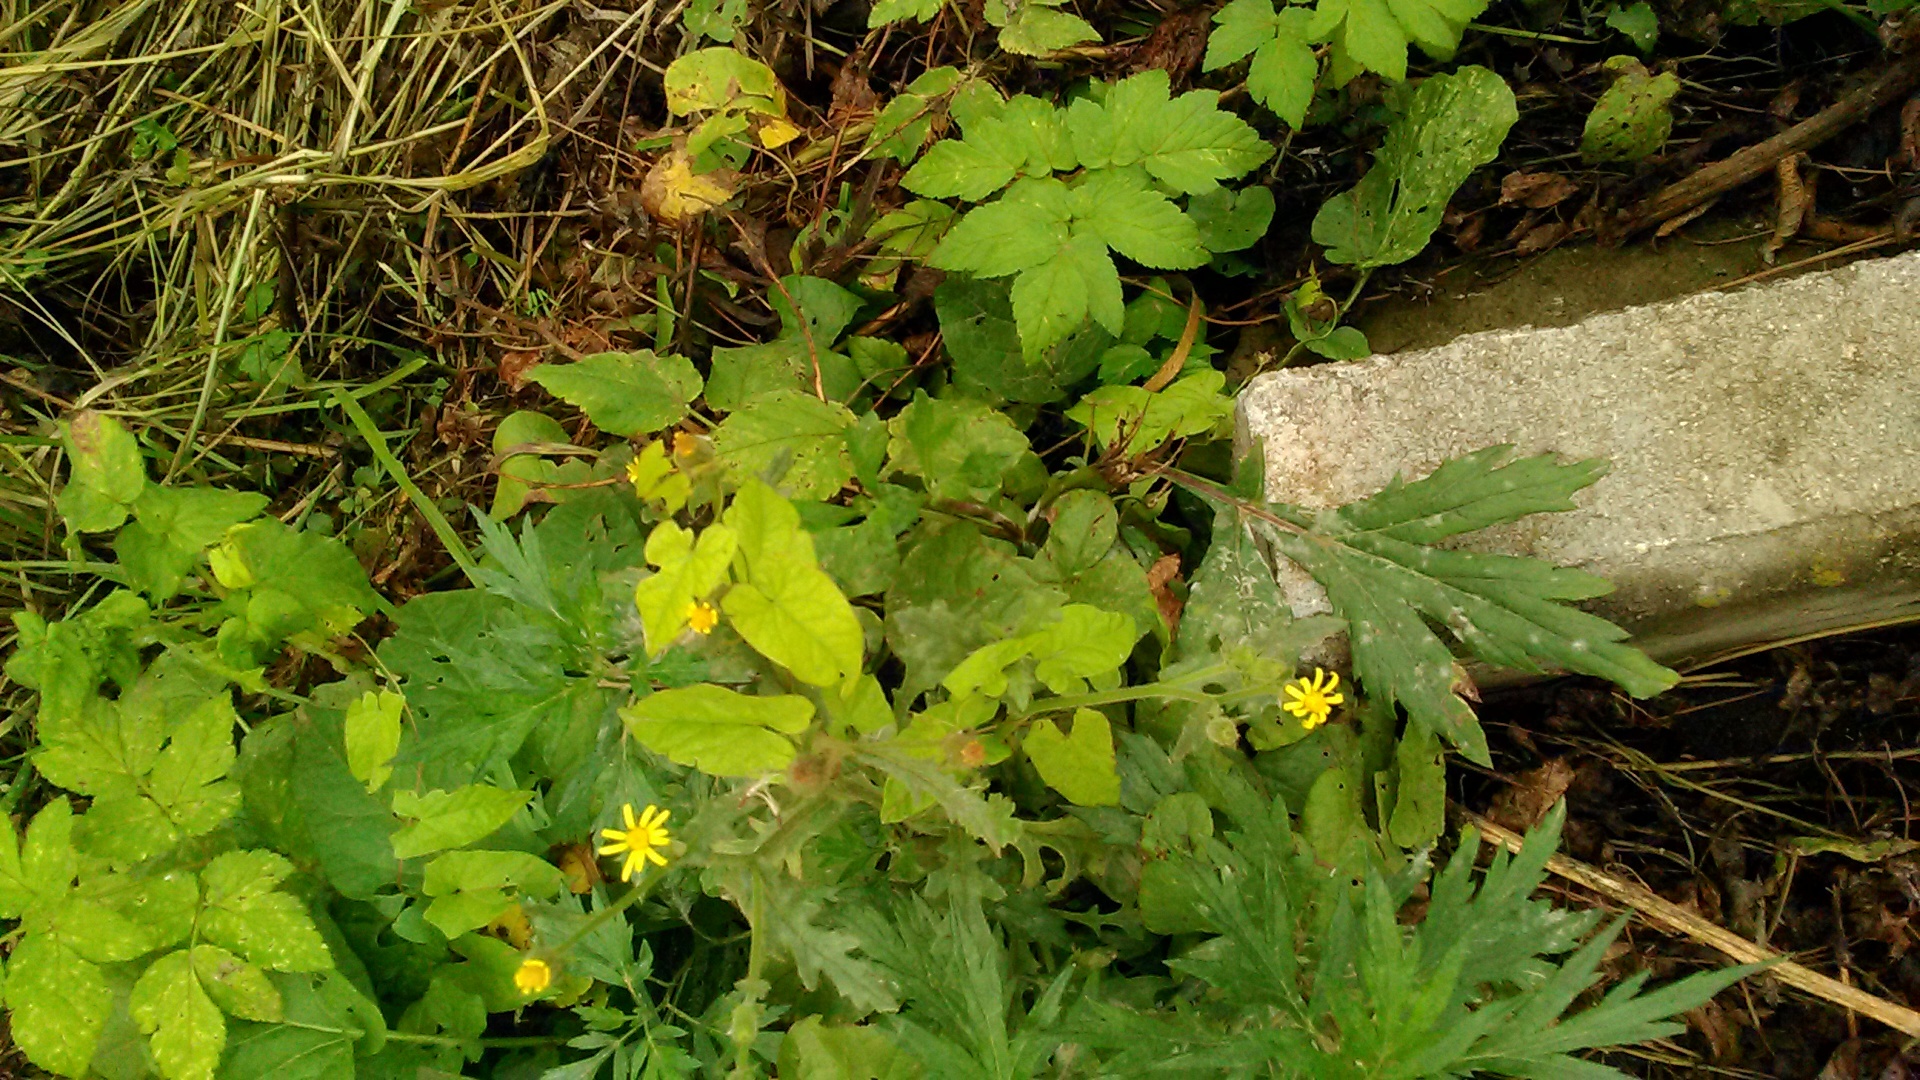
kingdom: Plantae
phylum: Tracheophyta
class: Magnoliopsida
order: Asterales
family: Asteraceae
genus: Senecio
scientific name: Senecio viscosus
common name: Sticky groundsel
